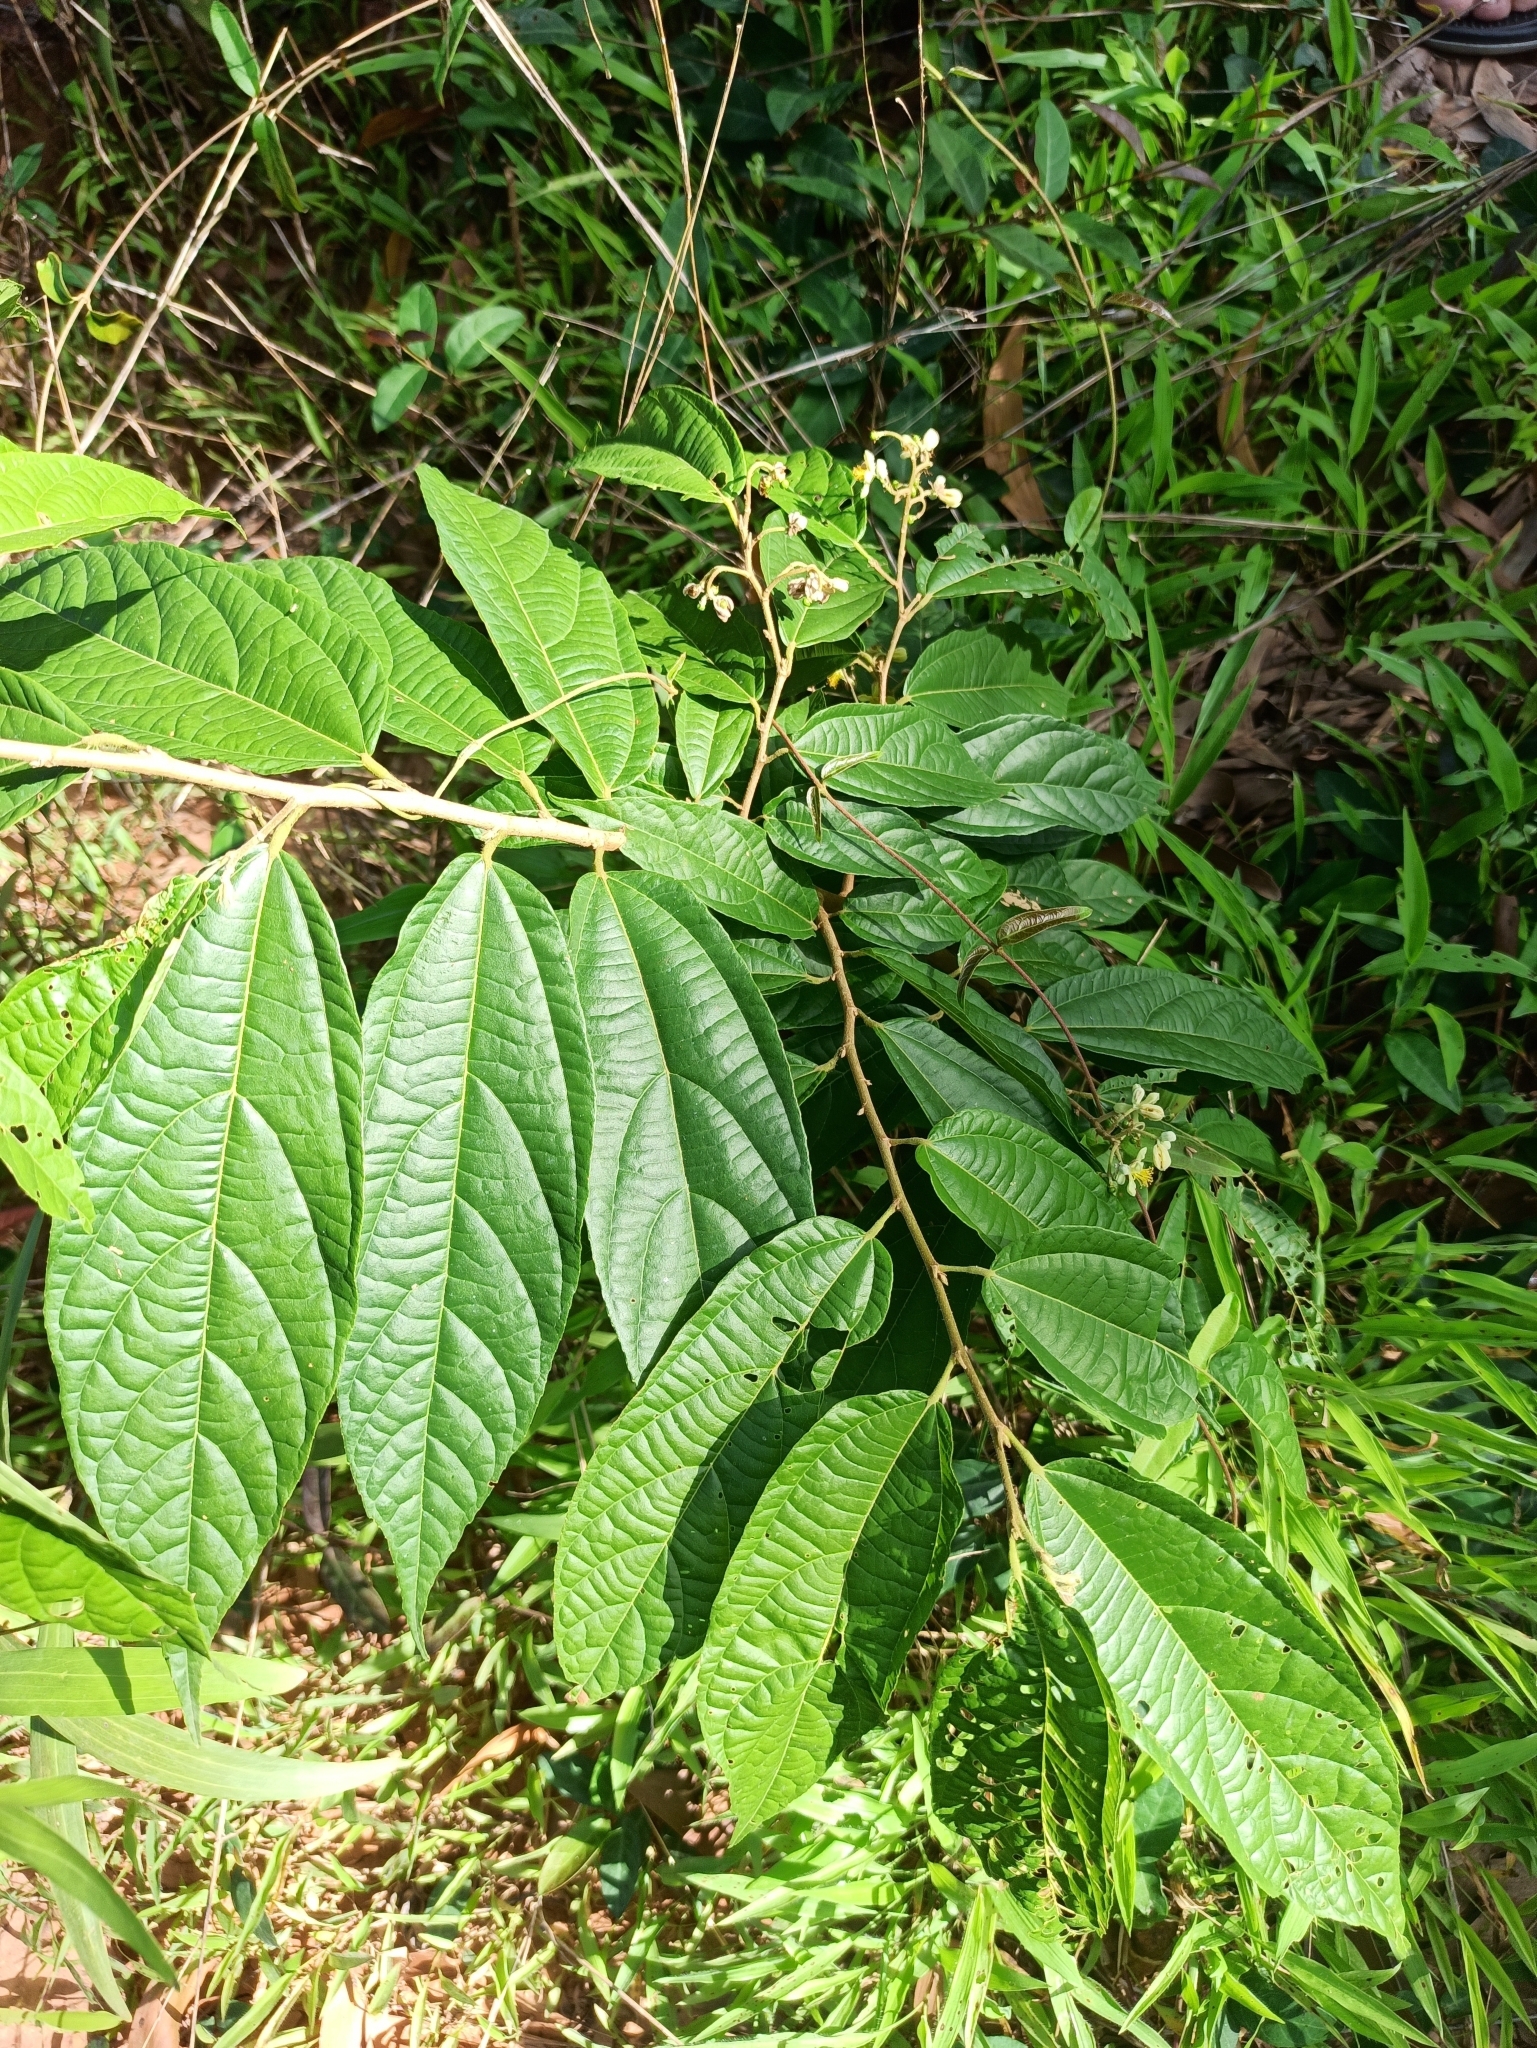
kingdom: Plantae
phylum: Tracheophyta
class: Magnoliopsida
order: Malvales
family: Malvaceae
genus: Microcos
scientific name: Microcos paniculata
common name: Microcos
